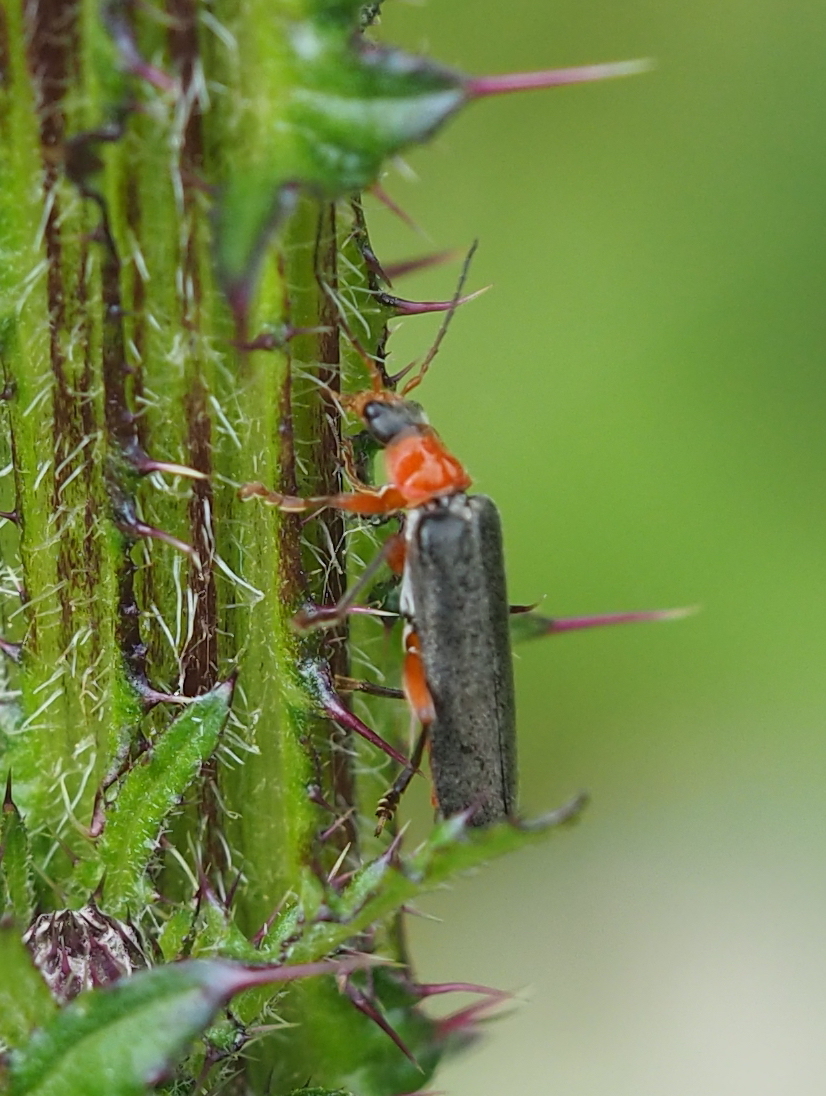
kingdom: Animalia
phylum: Arthropoda
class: Insecta
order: Coleoptera
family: Cantharidae
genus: Cantharis
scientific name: Cantharis pellucida
